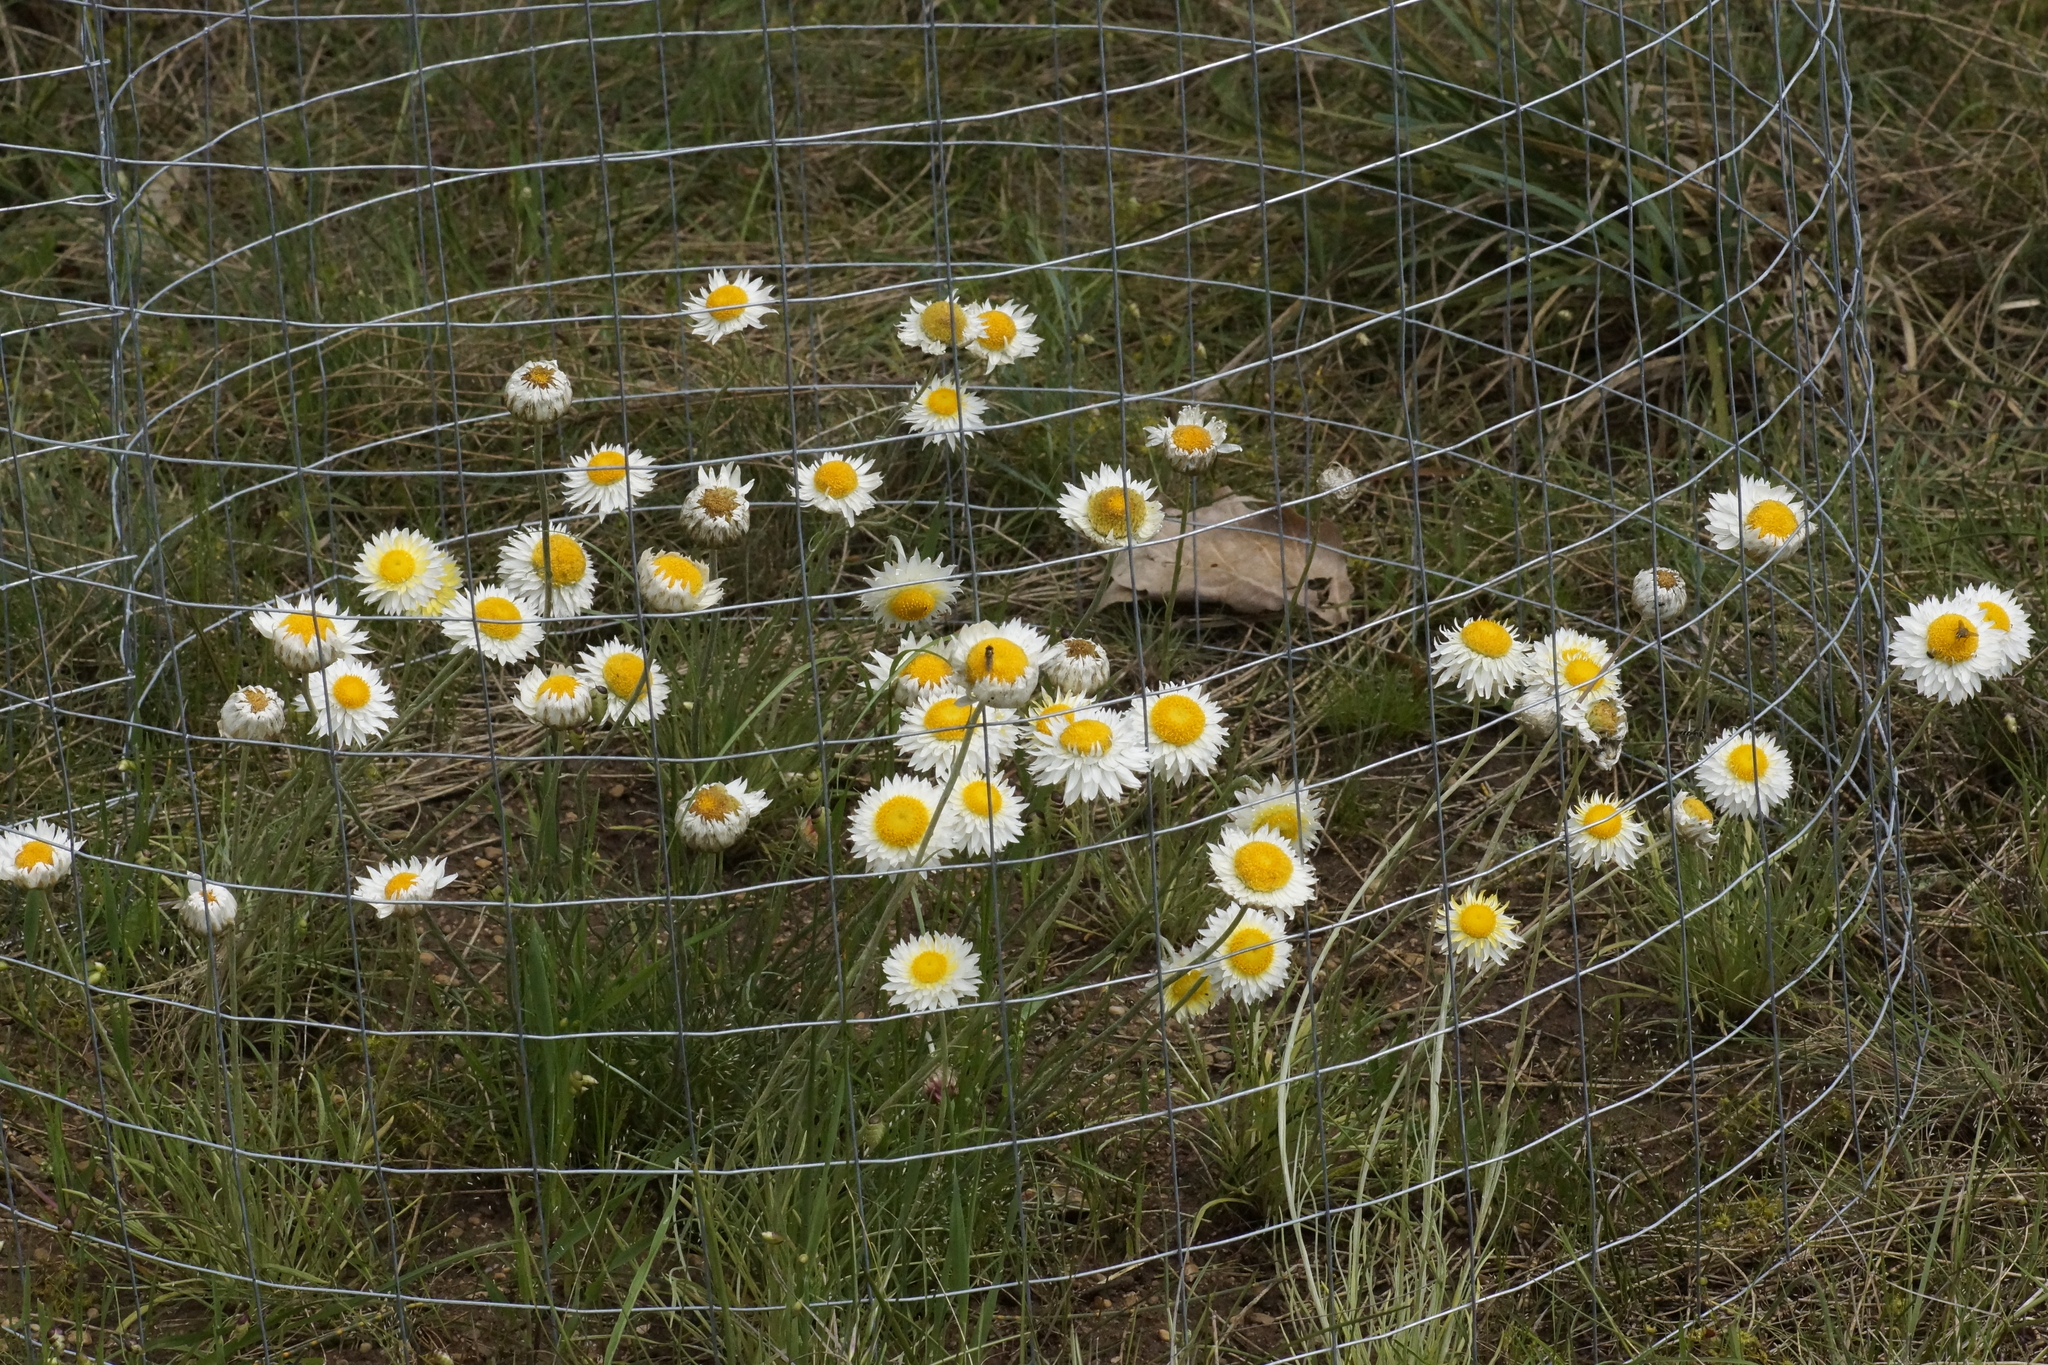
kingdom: Plantae
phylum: Tracheophyta
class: Magnoliopsida
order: Asterales
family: Asteraceae
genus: Leucochrysum
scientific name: Leucochrysum albicans
